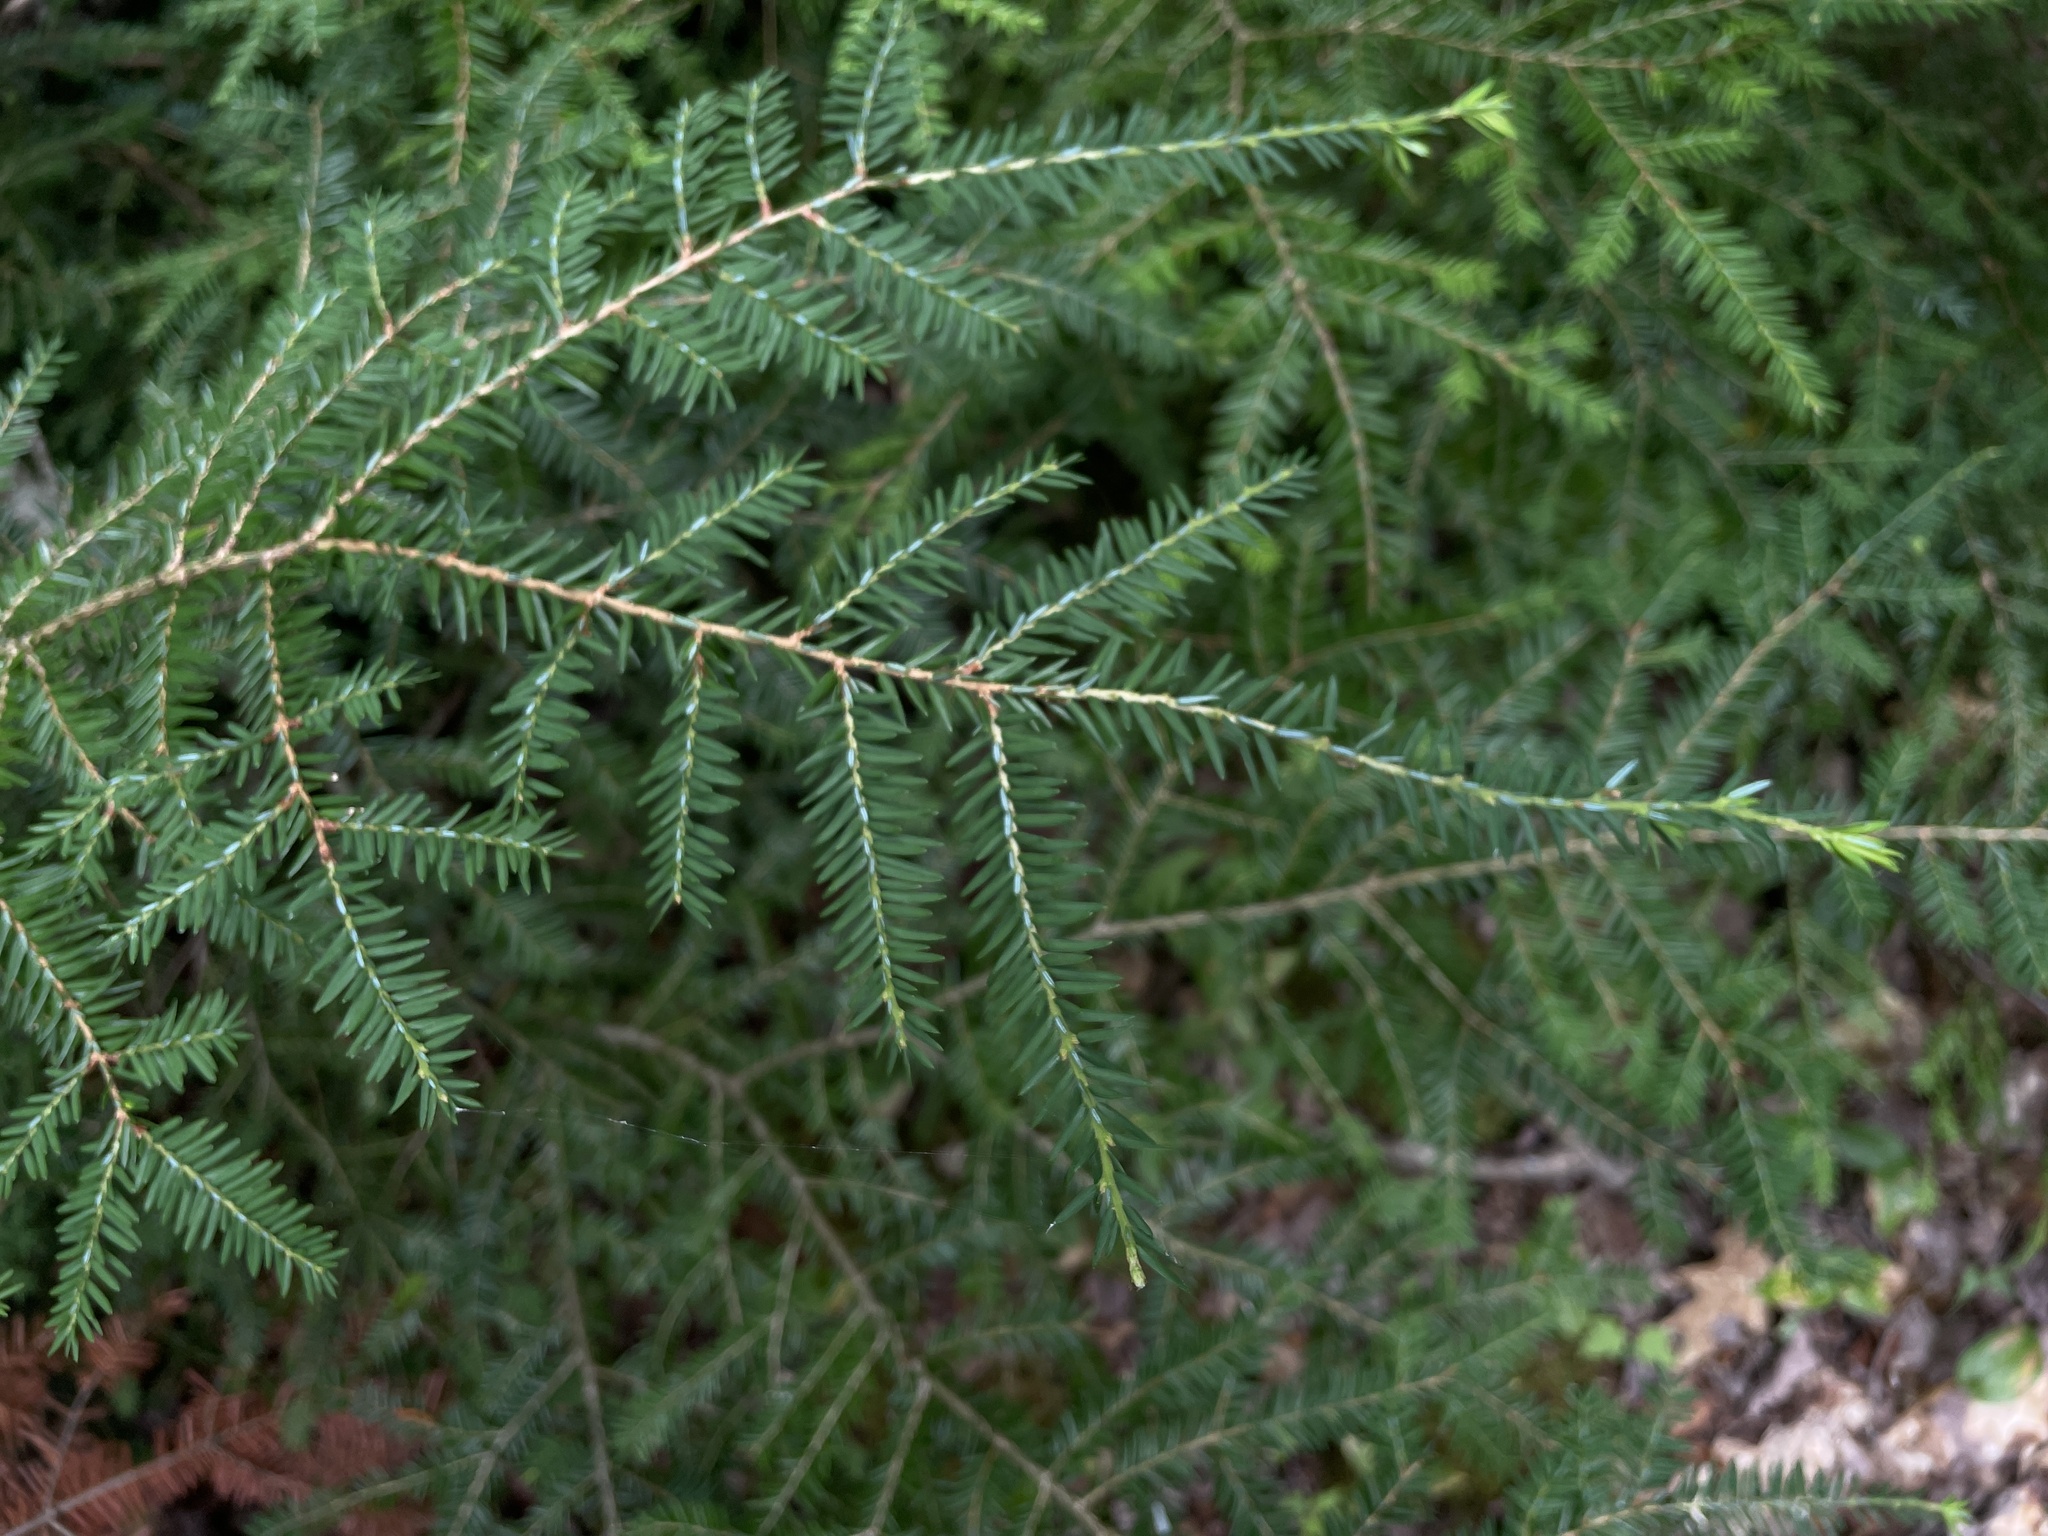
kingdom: Plantae
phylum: Tracheophyta
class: Pinopsida
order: Pinales
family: Pinaceae
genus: Tsuga
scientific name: Tsuga canadensis
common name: Eastern hemlock
